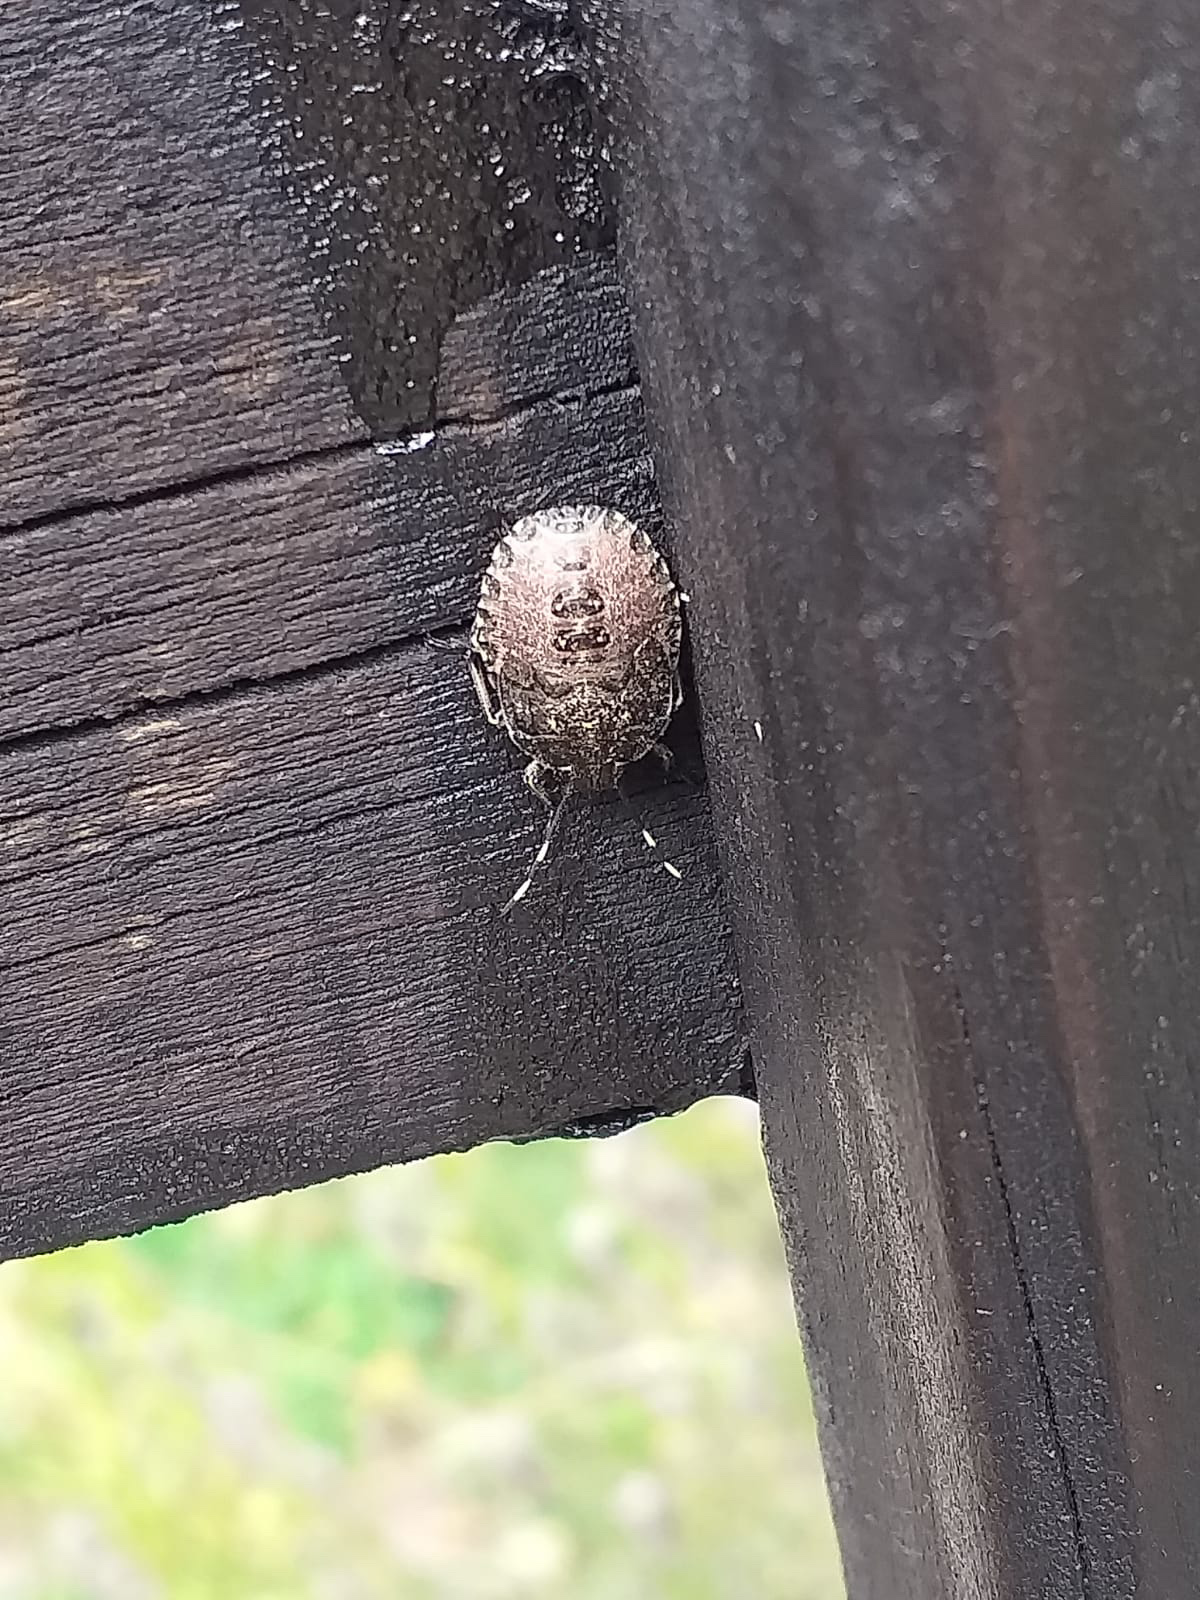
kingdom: Animalia
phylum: Arthropoda
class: Insecta
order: Hemiptera
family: Pentatomidae
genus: Rhaphigaster
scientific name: Rhaphigaster nebulosa
